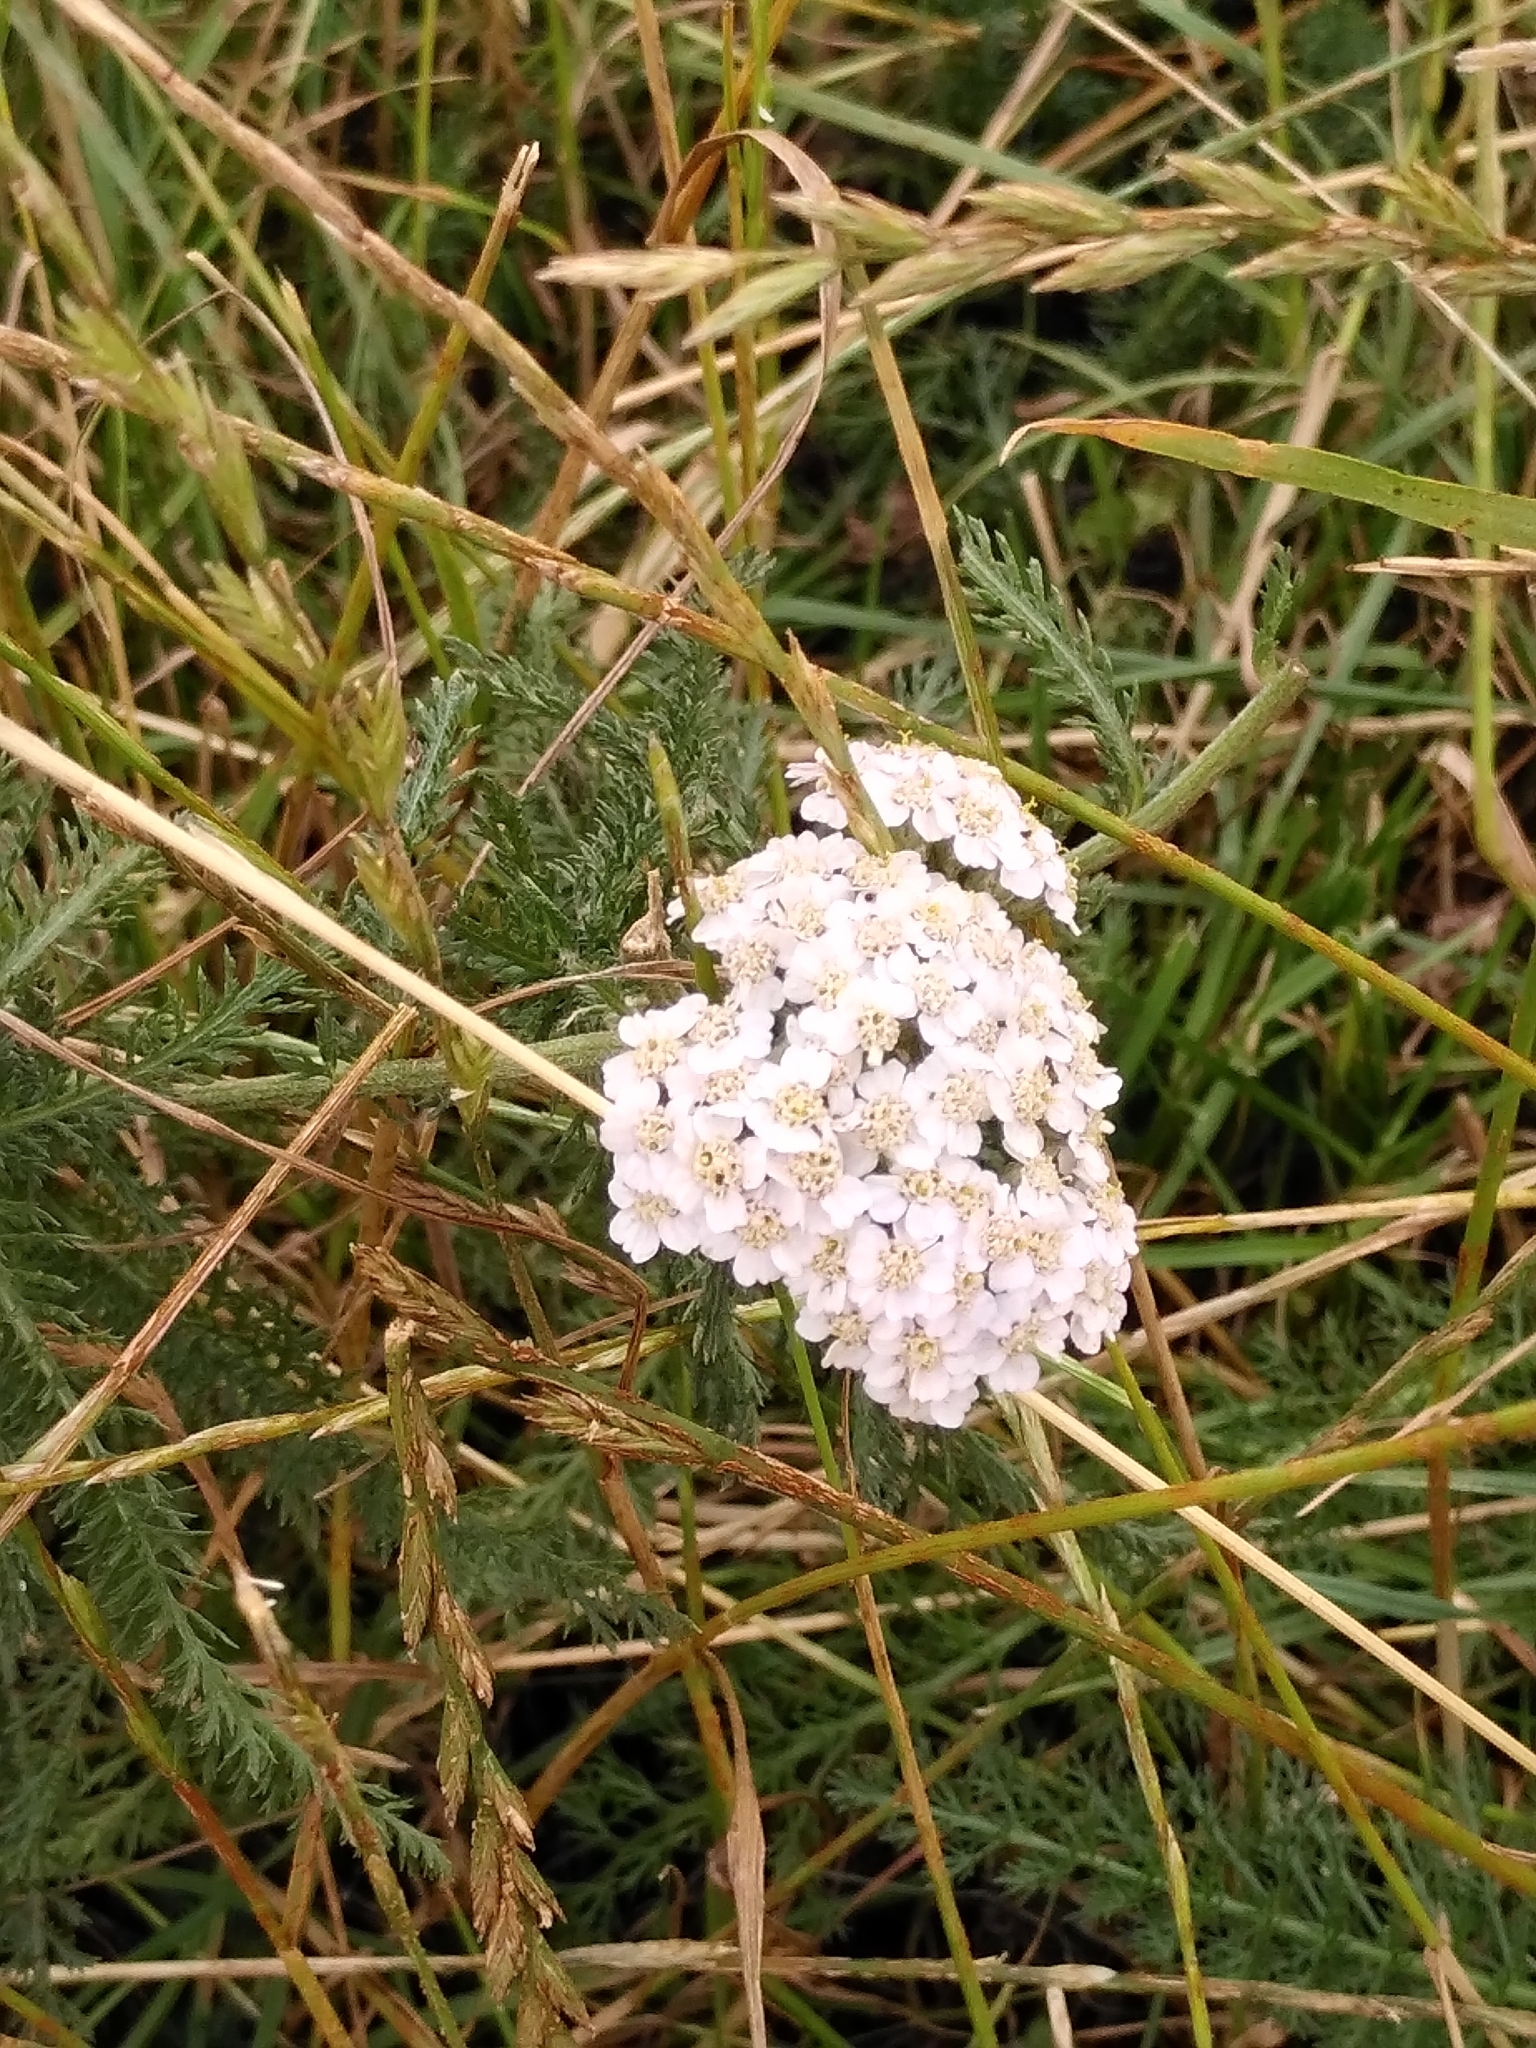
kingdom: Plantae
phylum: Tracheophyta
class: Magnoliopsida
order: Asterales
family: Asteraceae
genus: Achillea
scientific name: Achillea millefolium
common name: Yarrow
